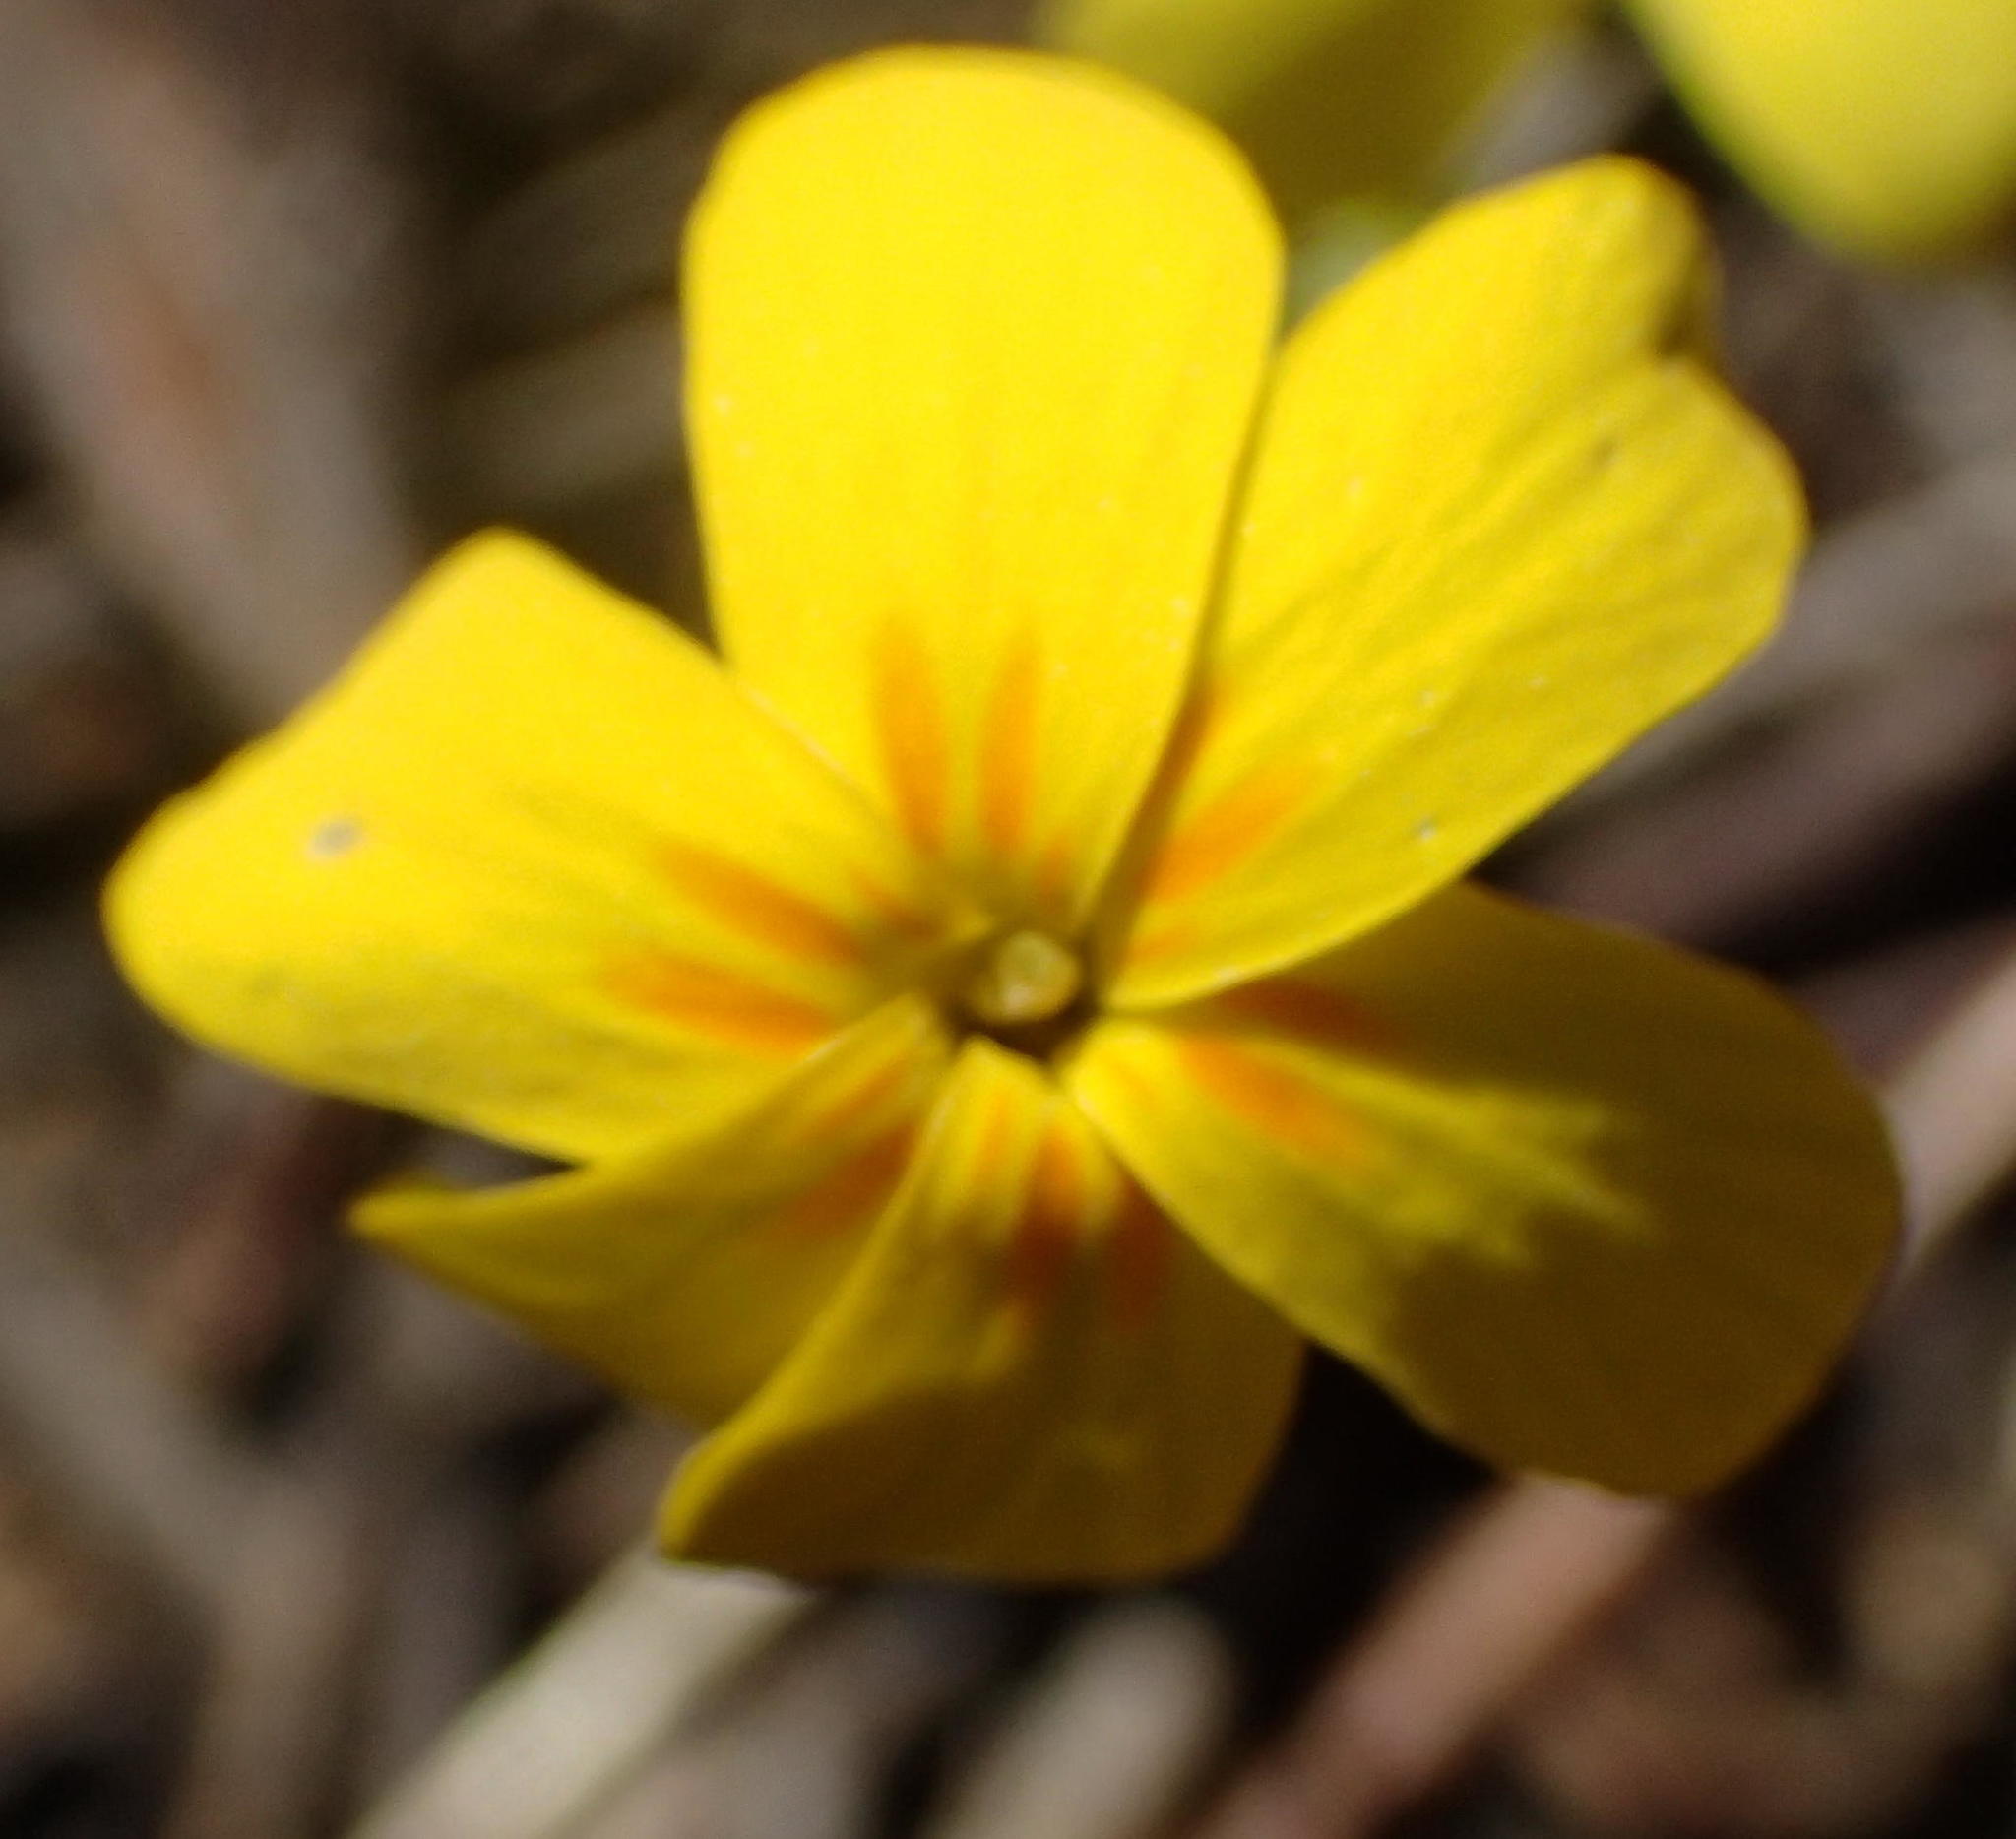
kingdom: Plantae
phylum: Tracheophyta
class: Magnoliopsida
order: Gentianales
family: Gentianaceae
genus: Sebaea
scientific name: Sebaea exacoides
